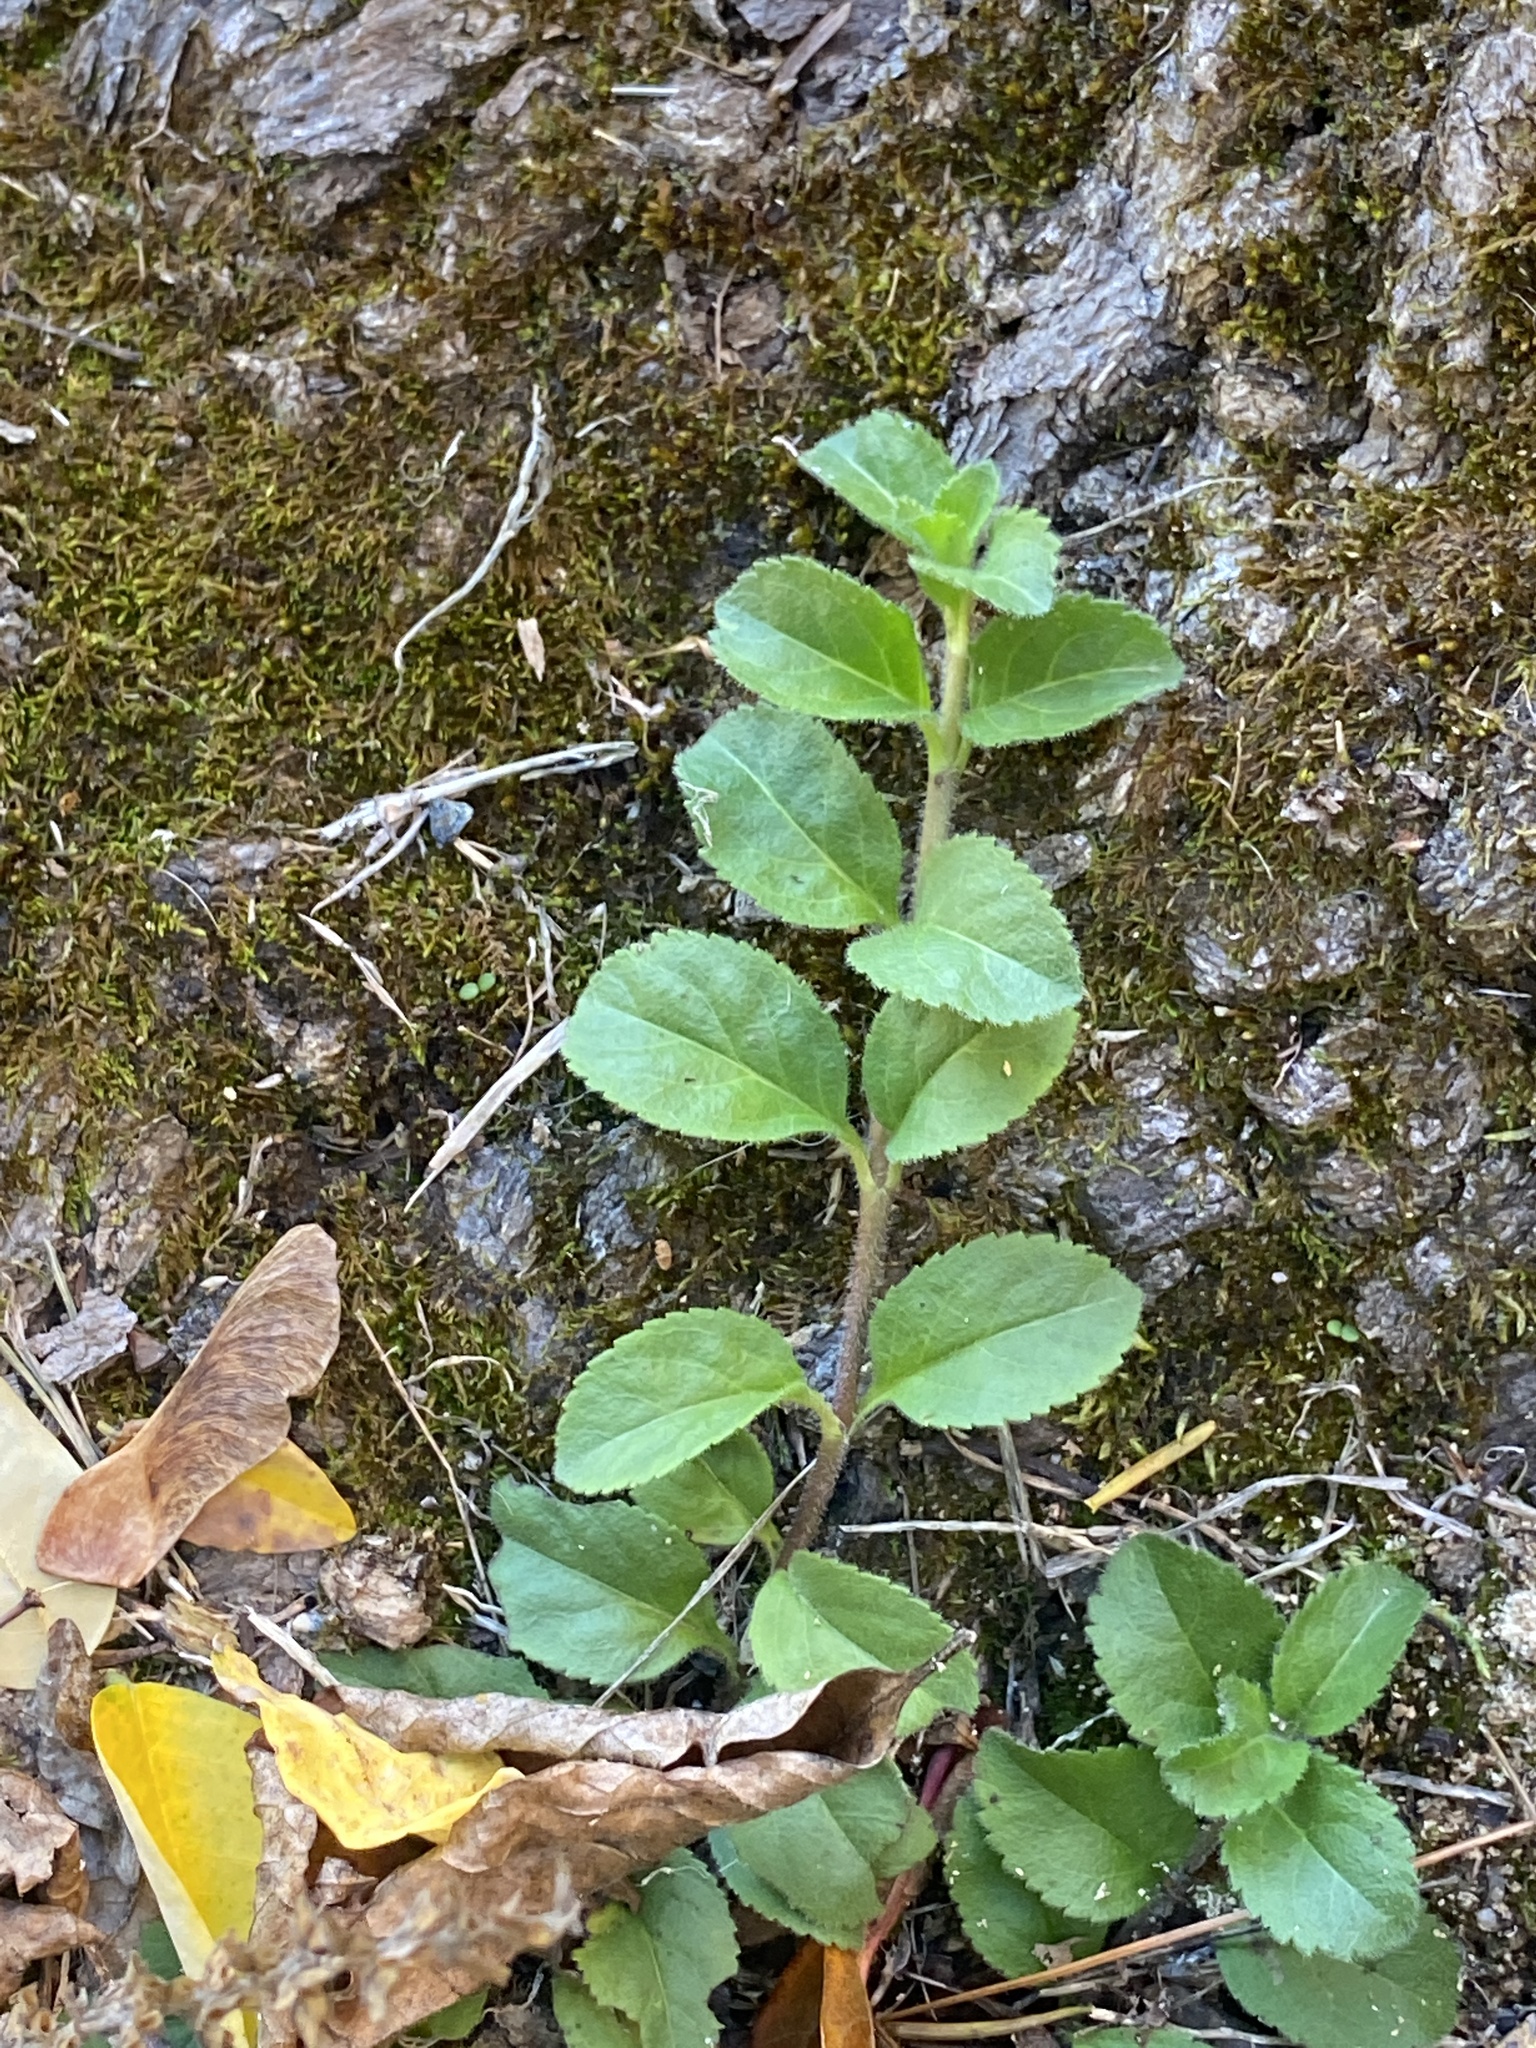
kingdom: Plantae
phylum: Tracheophyta
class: Magnoliopsida
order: Lamiales
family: Plantaginaceae
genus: Veronica
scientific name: Veronica officinalis
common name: Common speedwell
